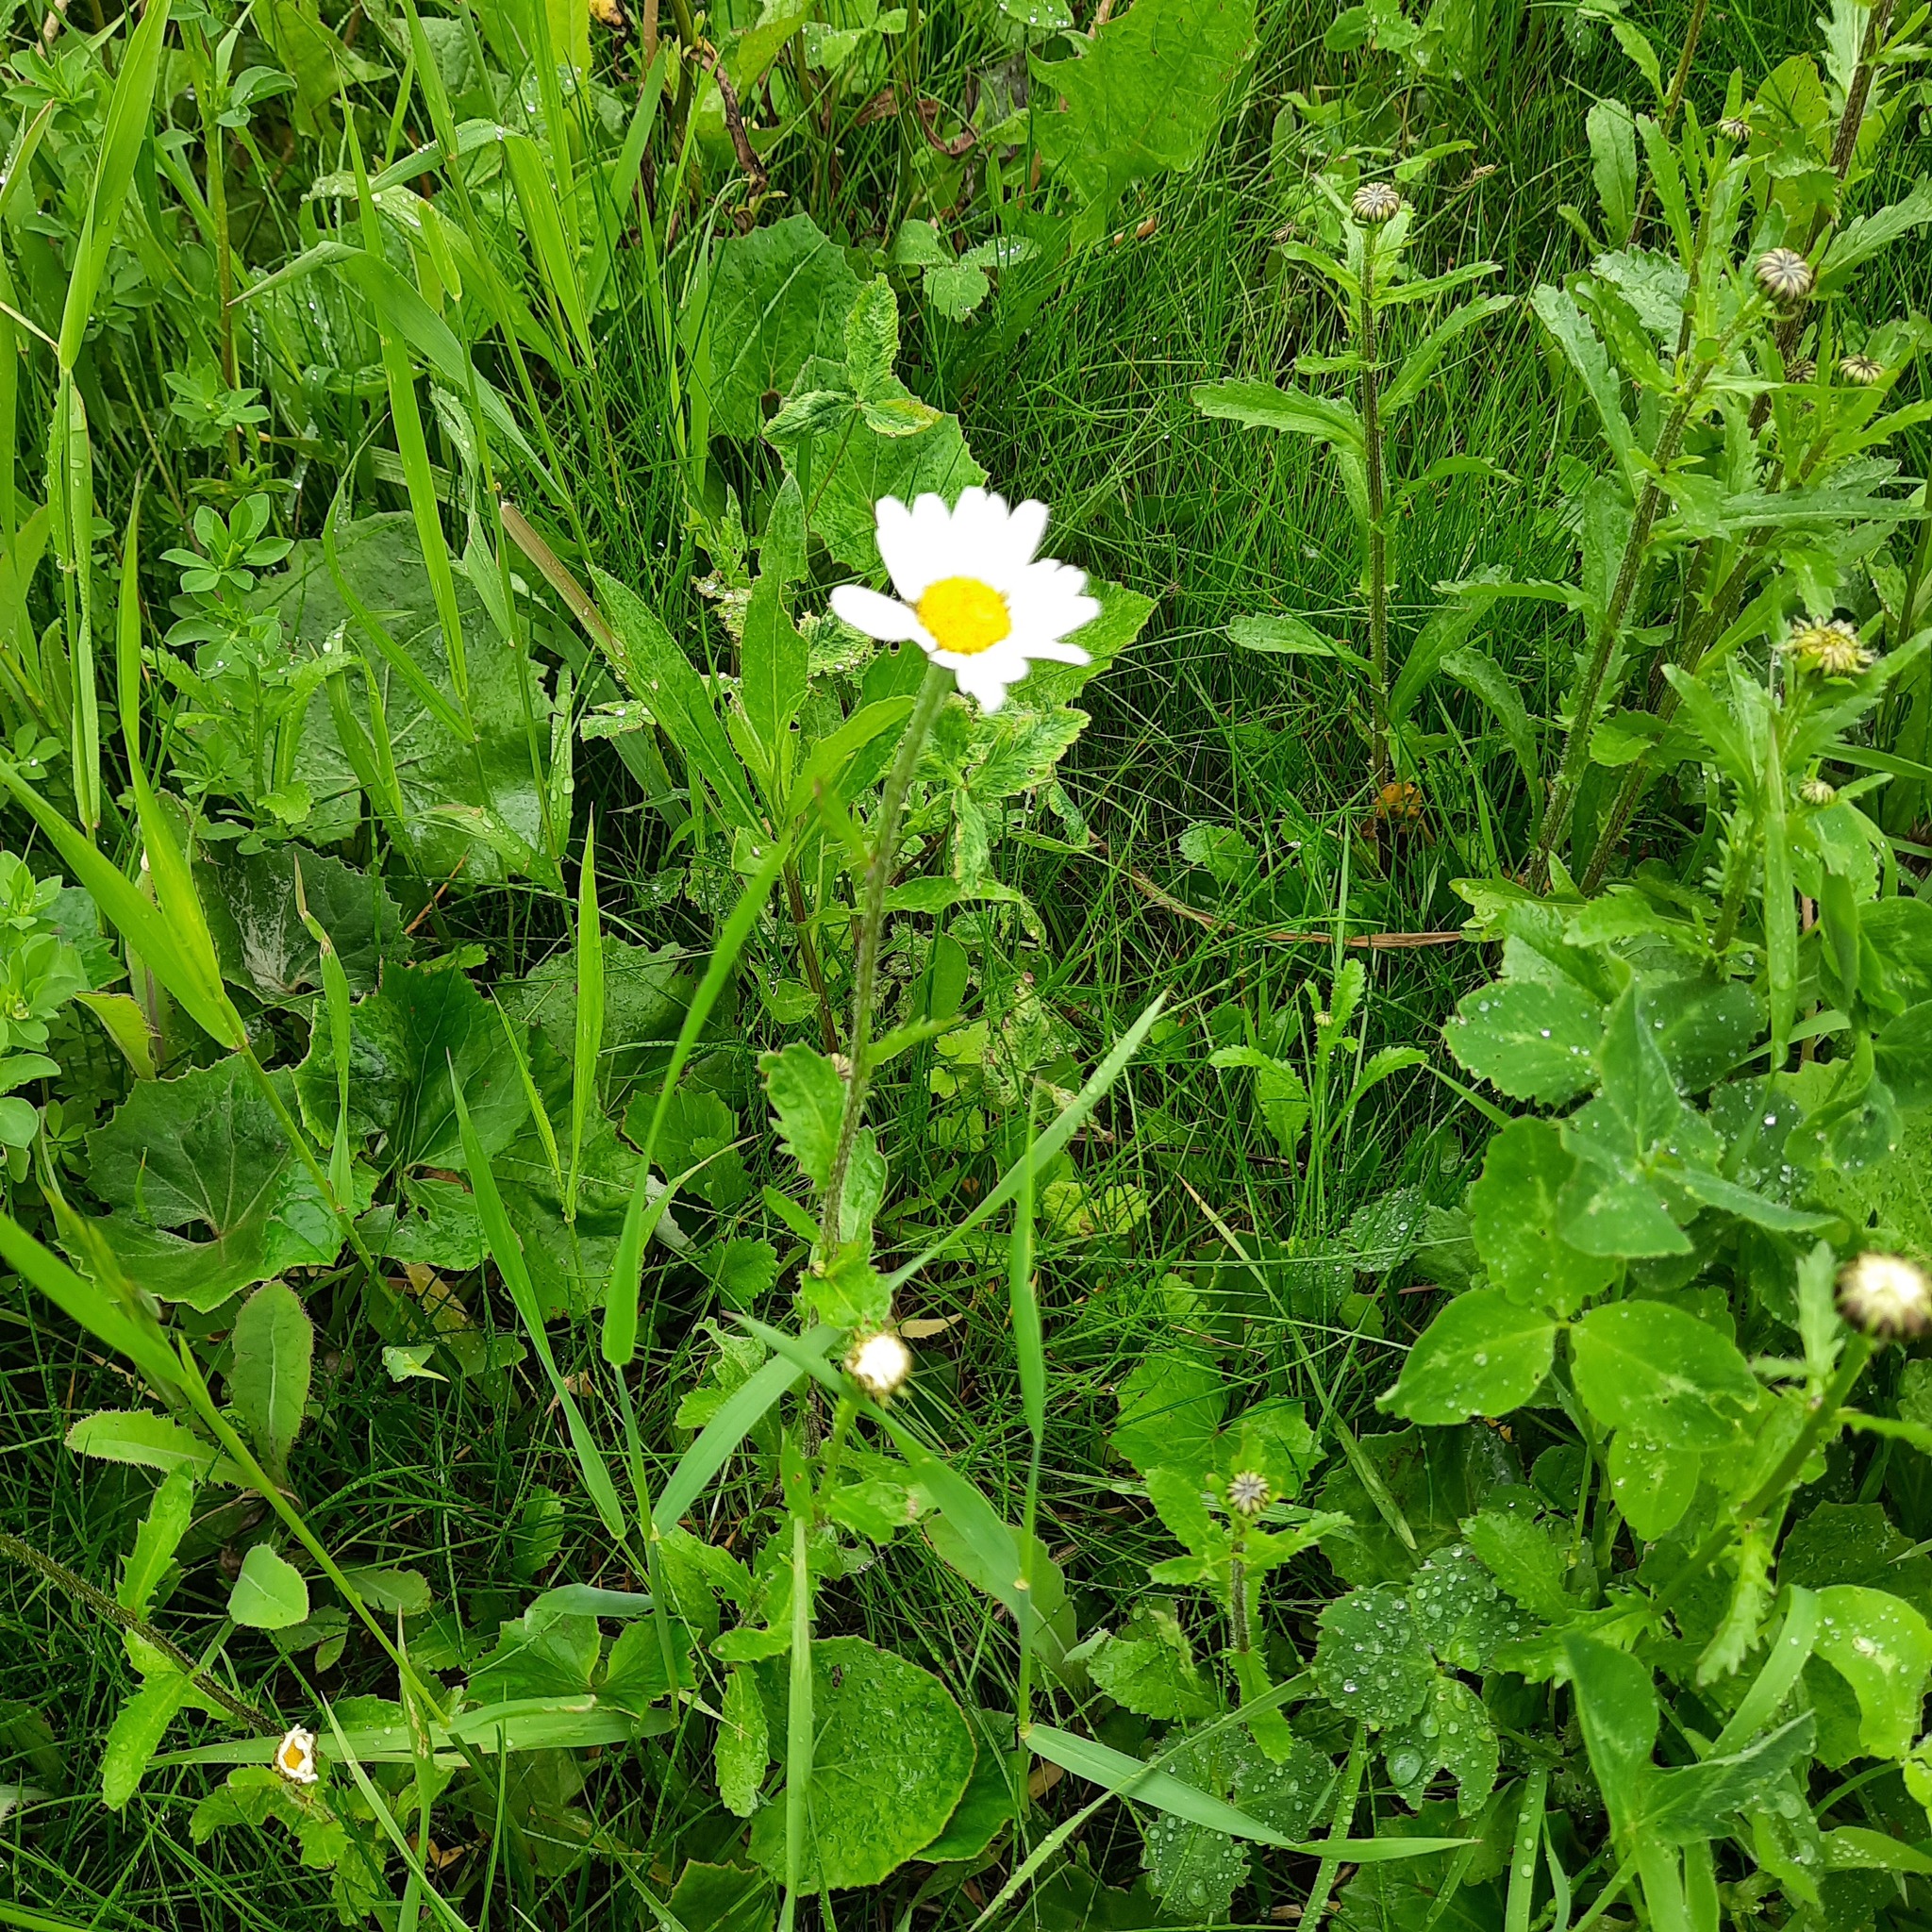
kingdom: Plantae
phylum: Tracheophyta
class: Magnoliopsida
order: Asterales
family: Asteraceae
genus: Leucanthemum
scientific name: Leucanthemum ircutianum
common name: Daisy
